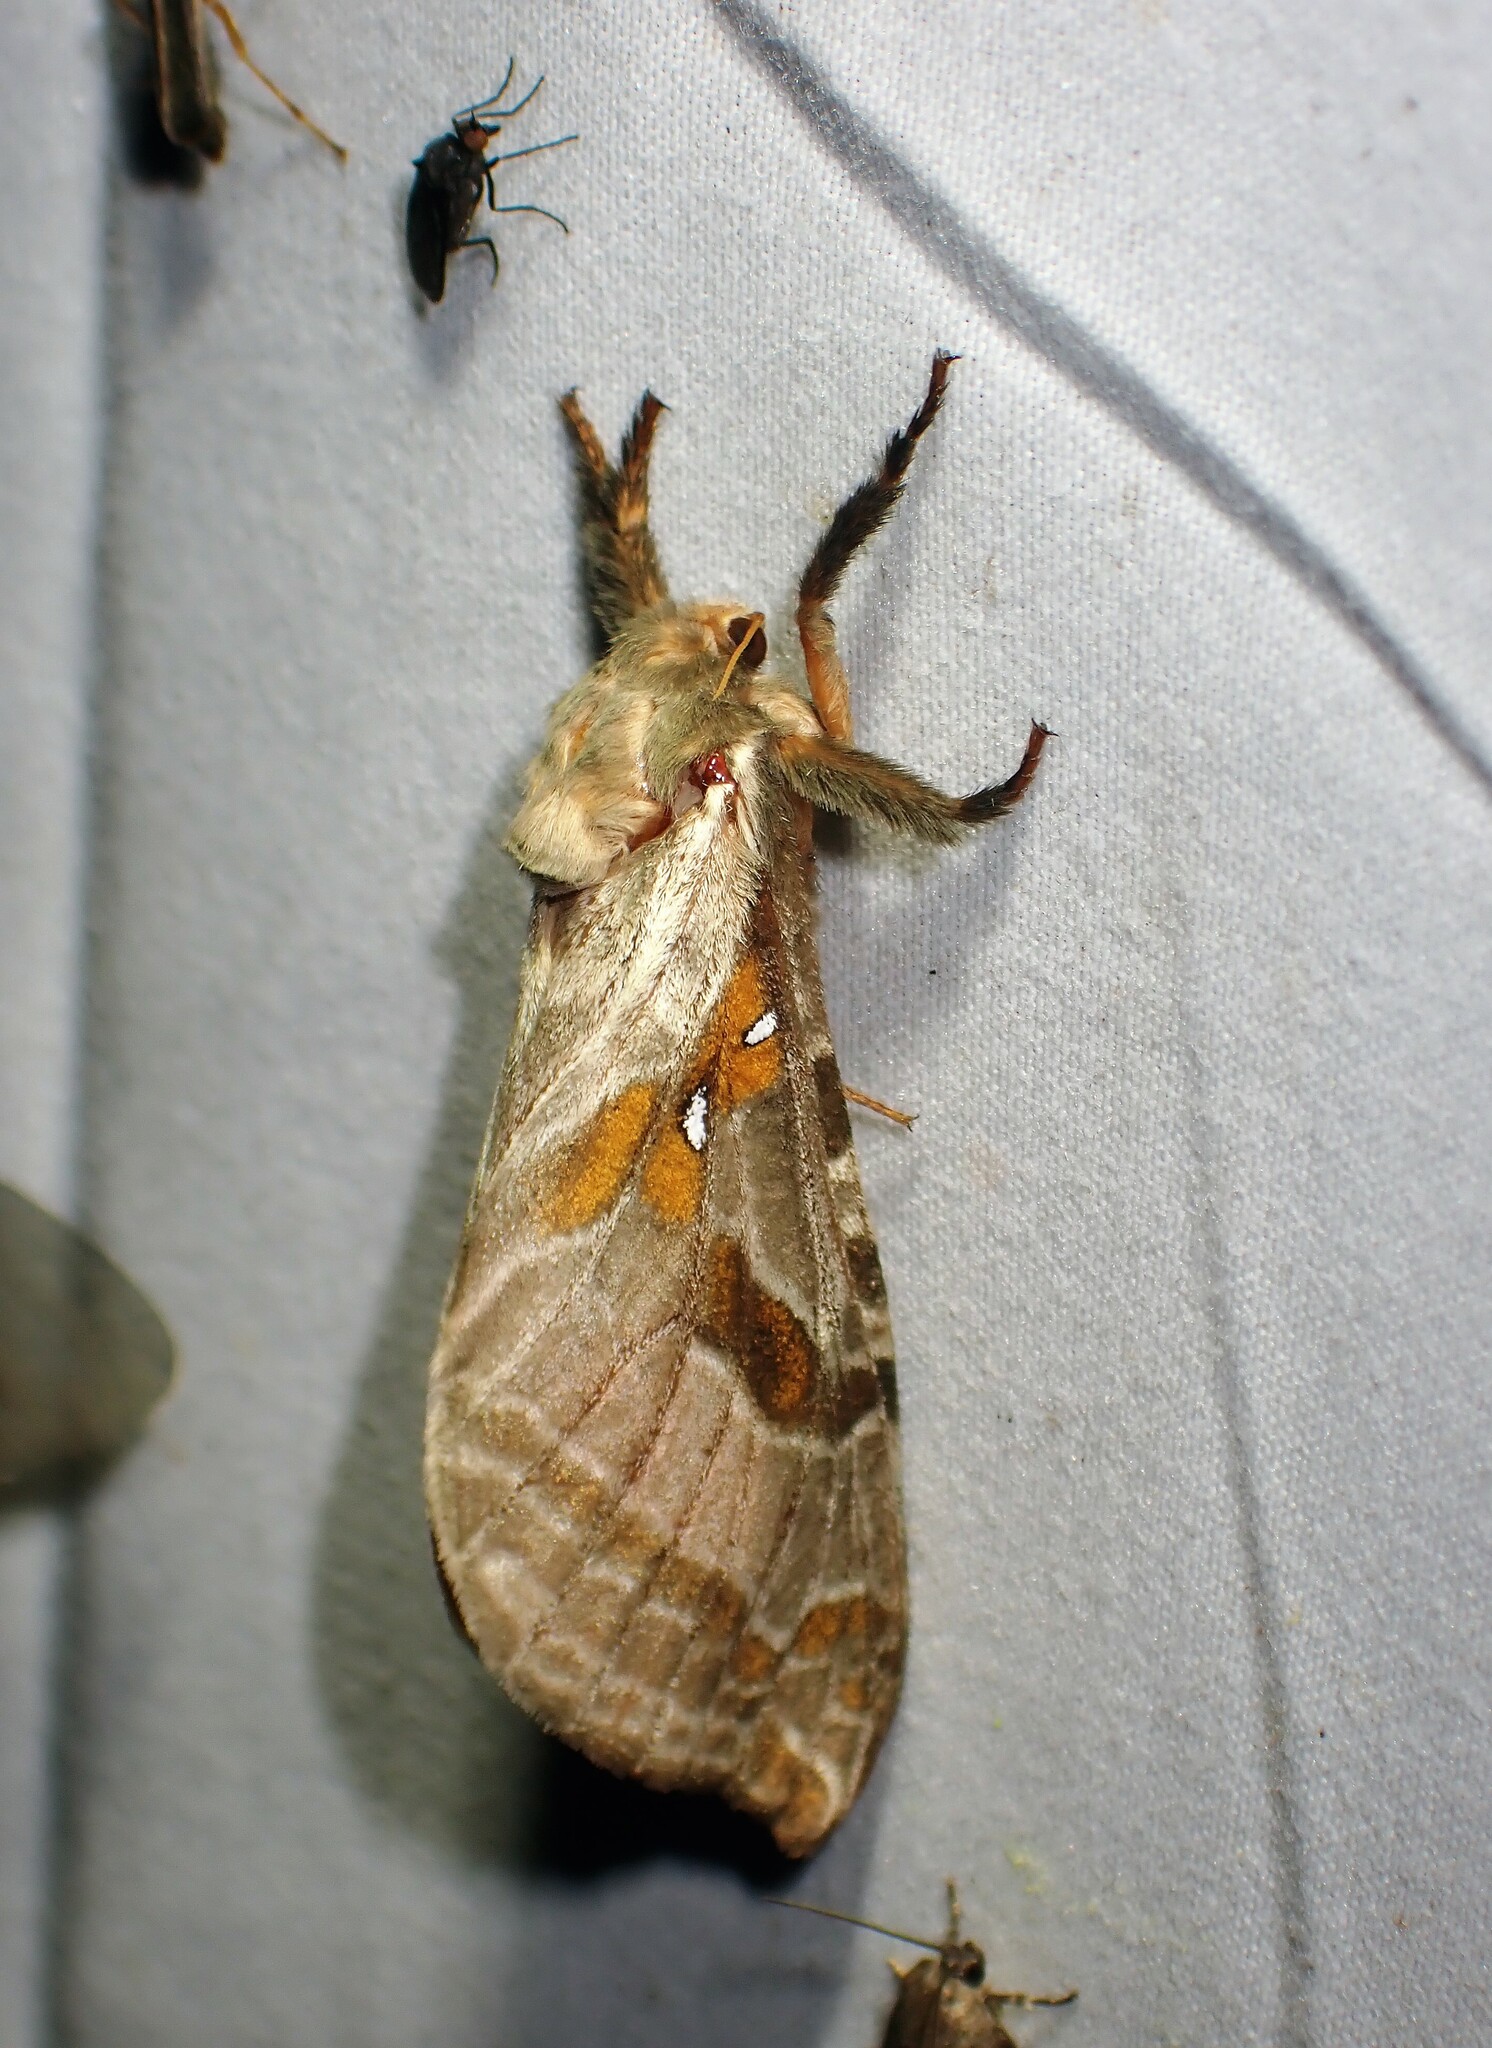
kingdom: Animalia
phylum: Arthropoda
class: Insecta
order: Lepidoptera
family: Hepialidae
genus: Sthenopis
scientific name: Sthenopis argenteomaculatus
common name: Silver-spotted ghost moth
